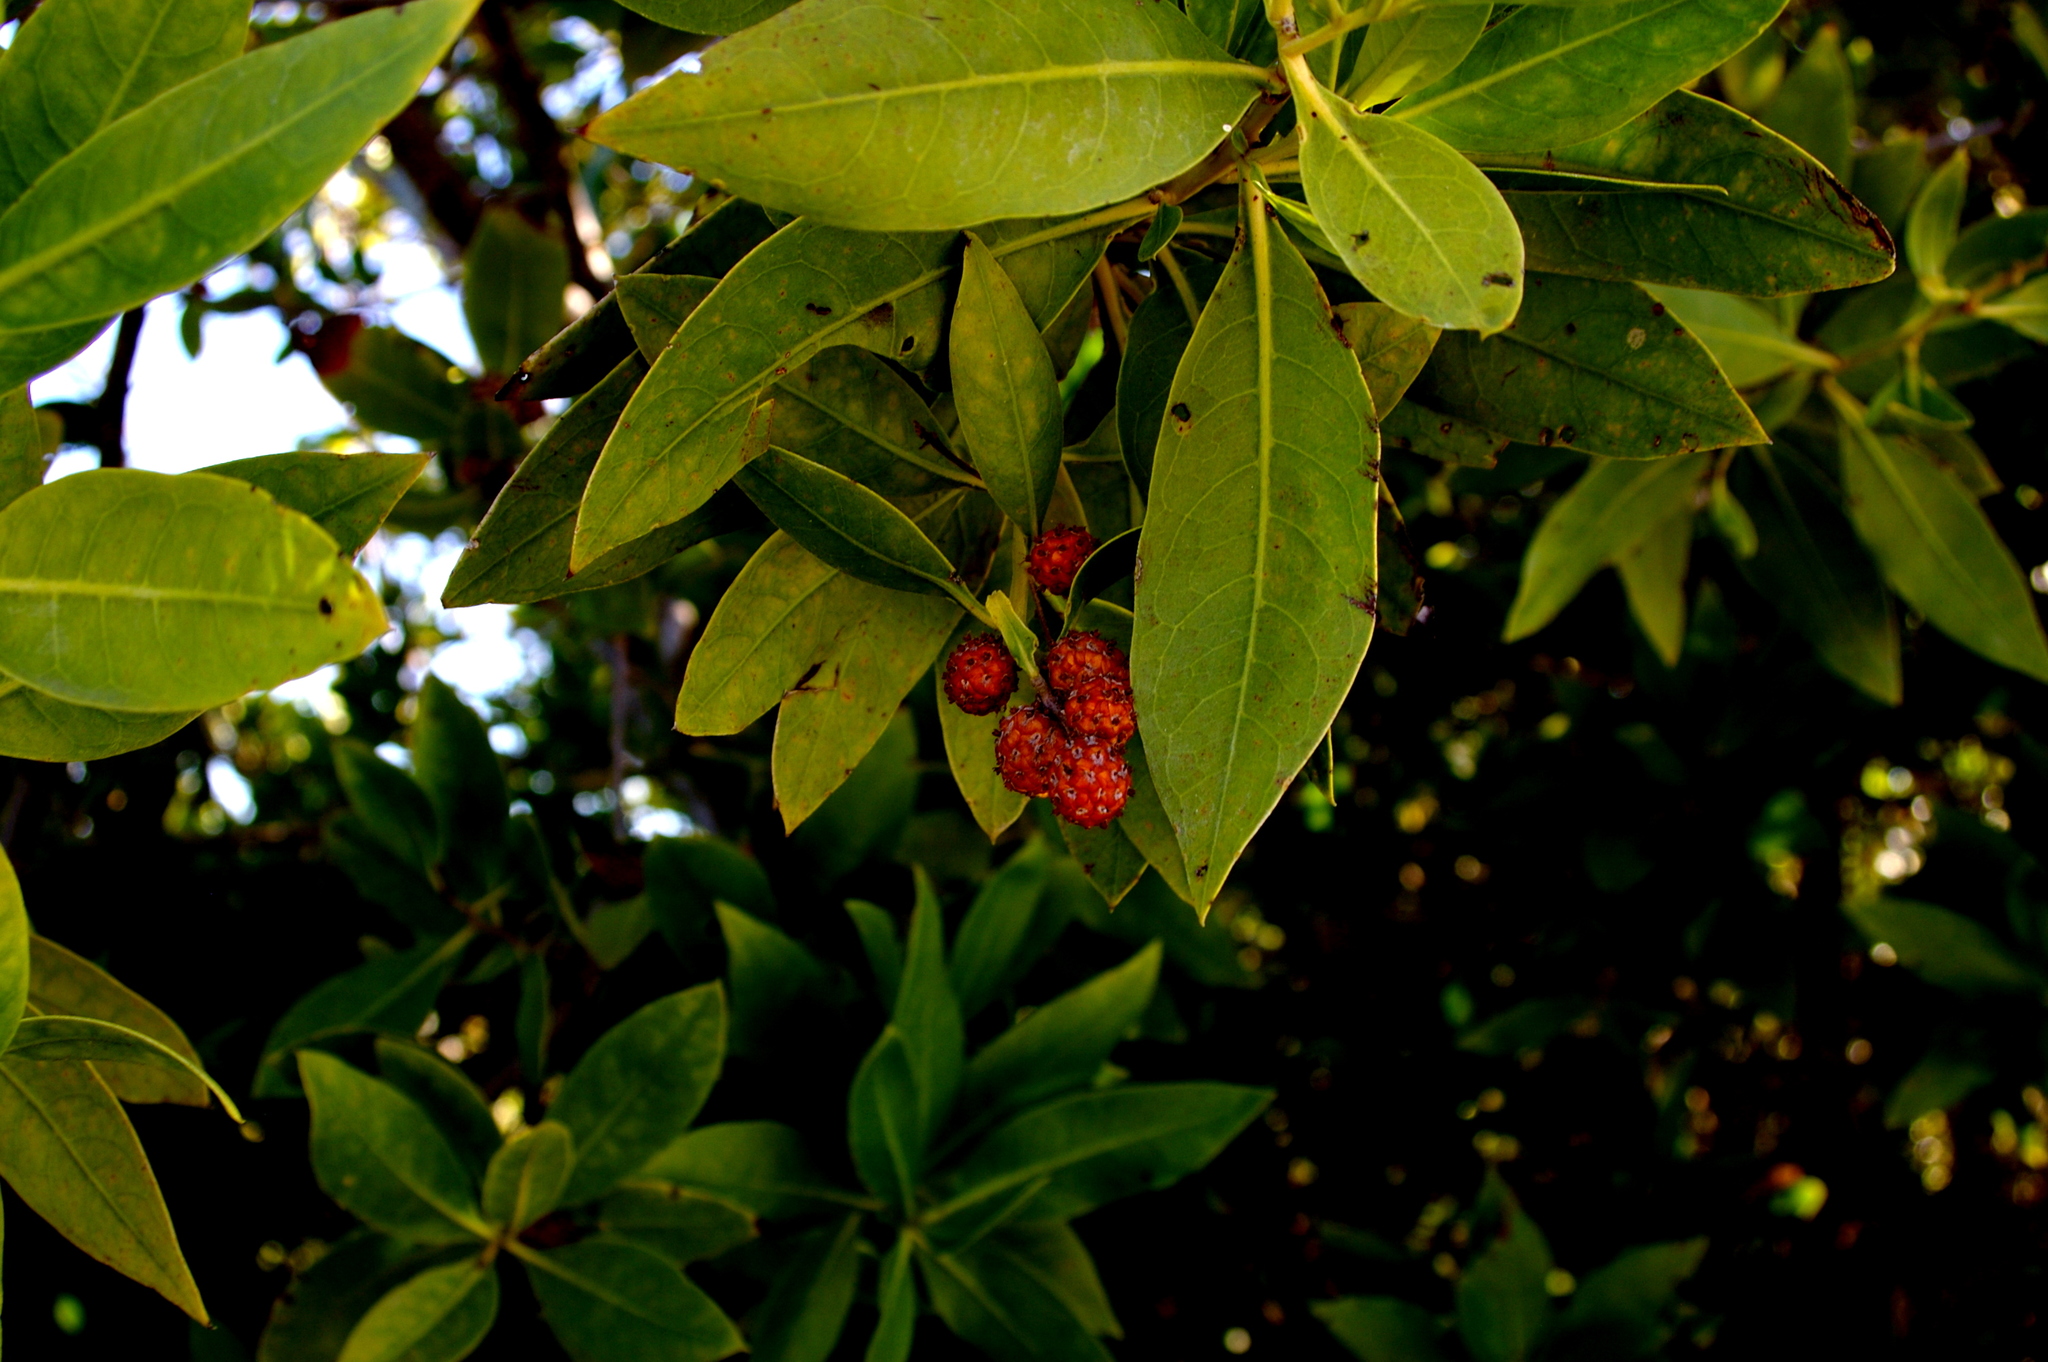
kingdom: Plantae
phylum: Tracheophyta
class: Magnoliopsida
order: Myrtales
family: Combretaceae
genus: Conocarpus
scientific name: Conocarpus erectus
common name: Button mangrove
